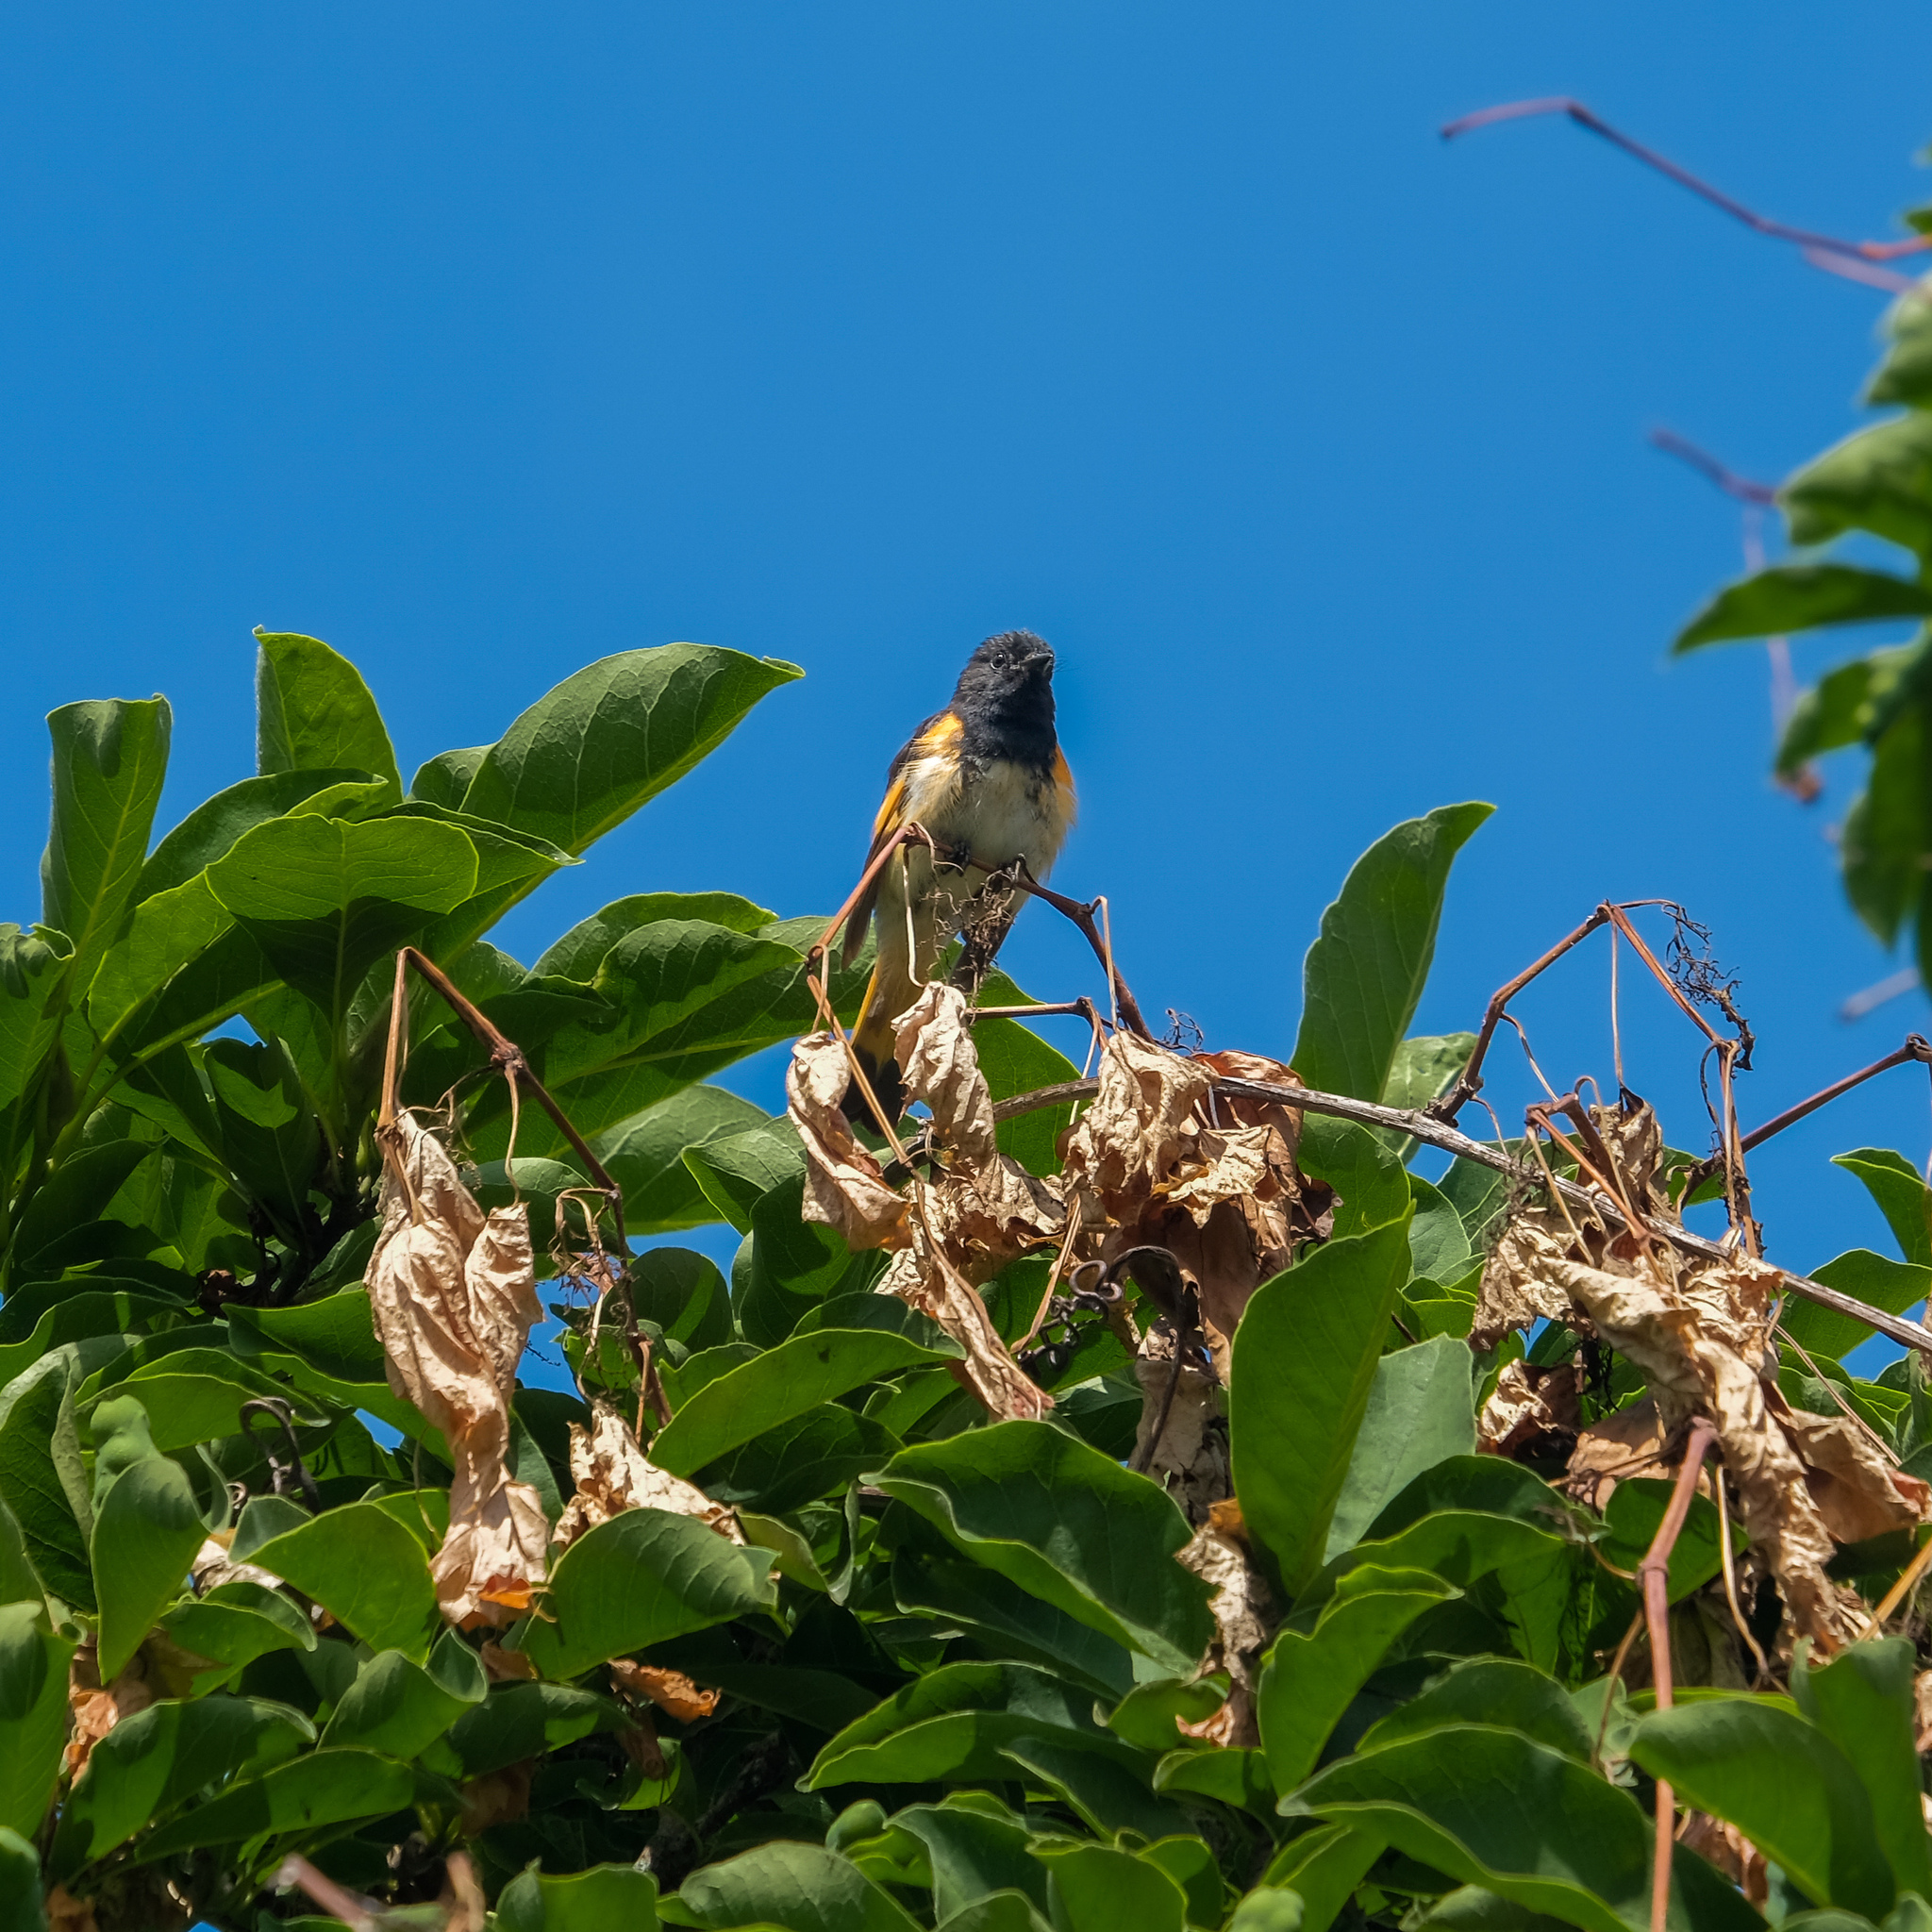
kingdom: Animalia
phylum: Chordata
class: Aves
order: Passeriformes
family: Parulidae
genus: Setophaga
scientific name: Setophaga ruticilla
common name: American redstart
